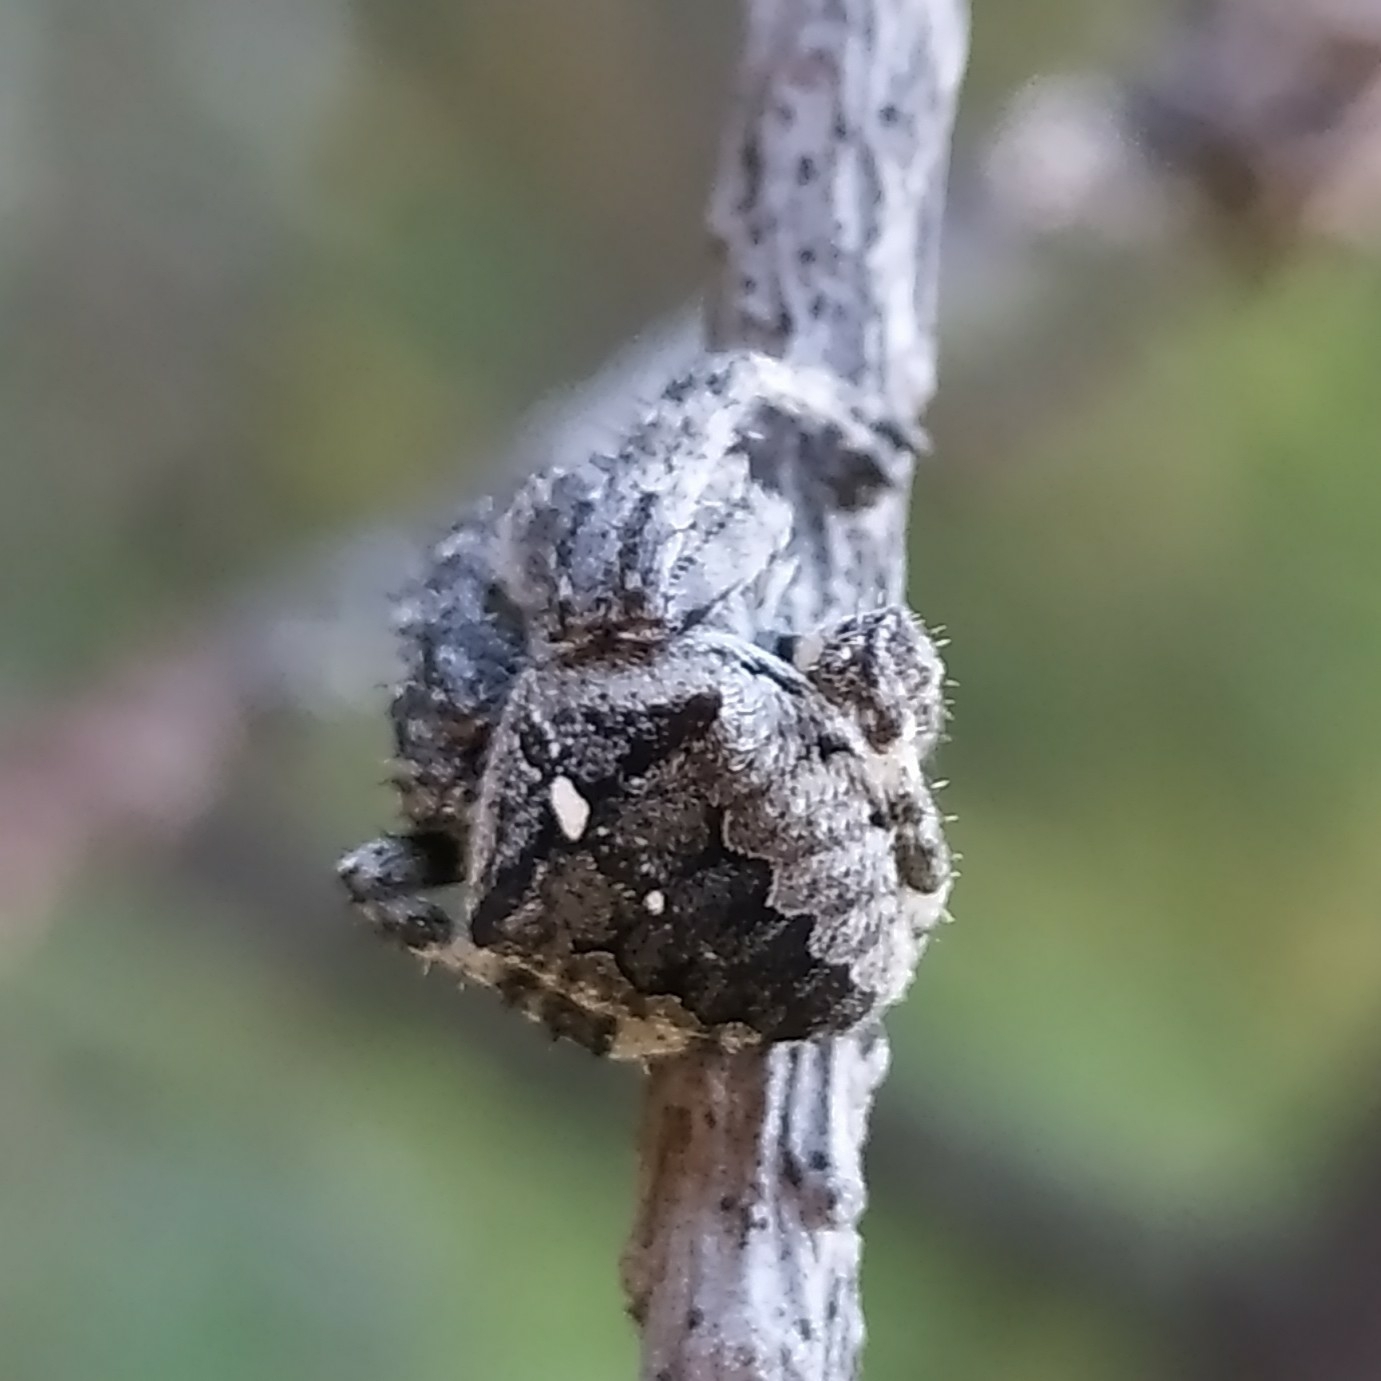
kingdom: Animalia
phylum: Arthropoda
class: Arachnida
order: Araneae
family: Araneidae
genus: Araneus
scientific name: Araneus angulatus
